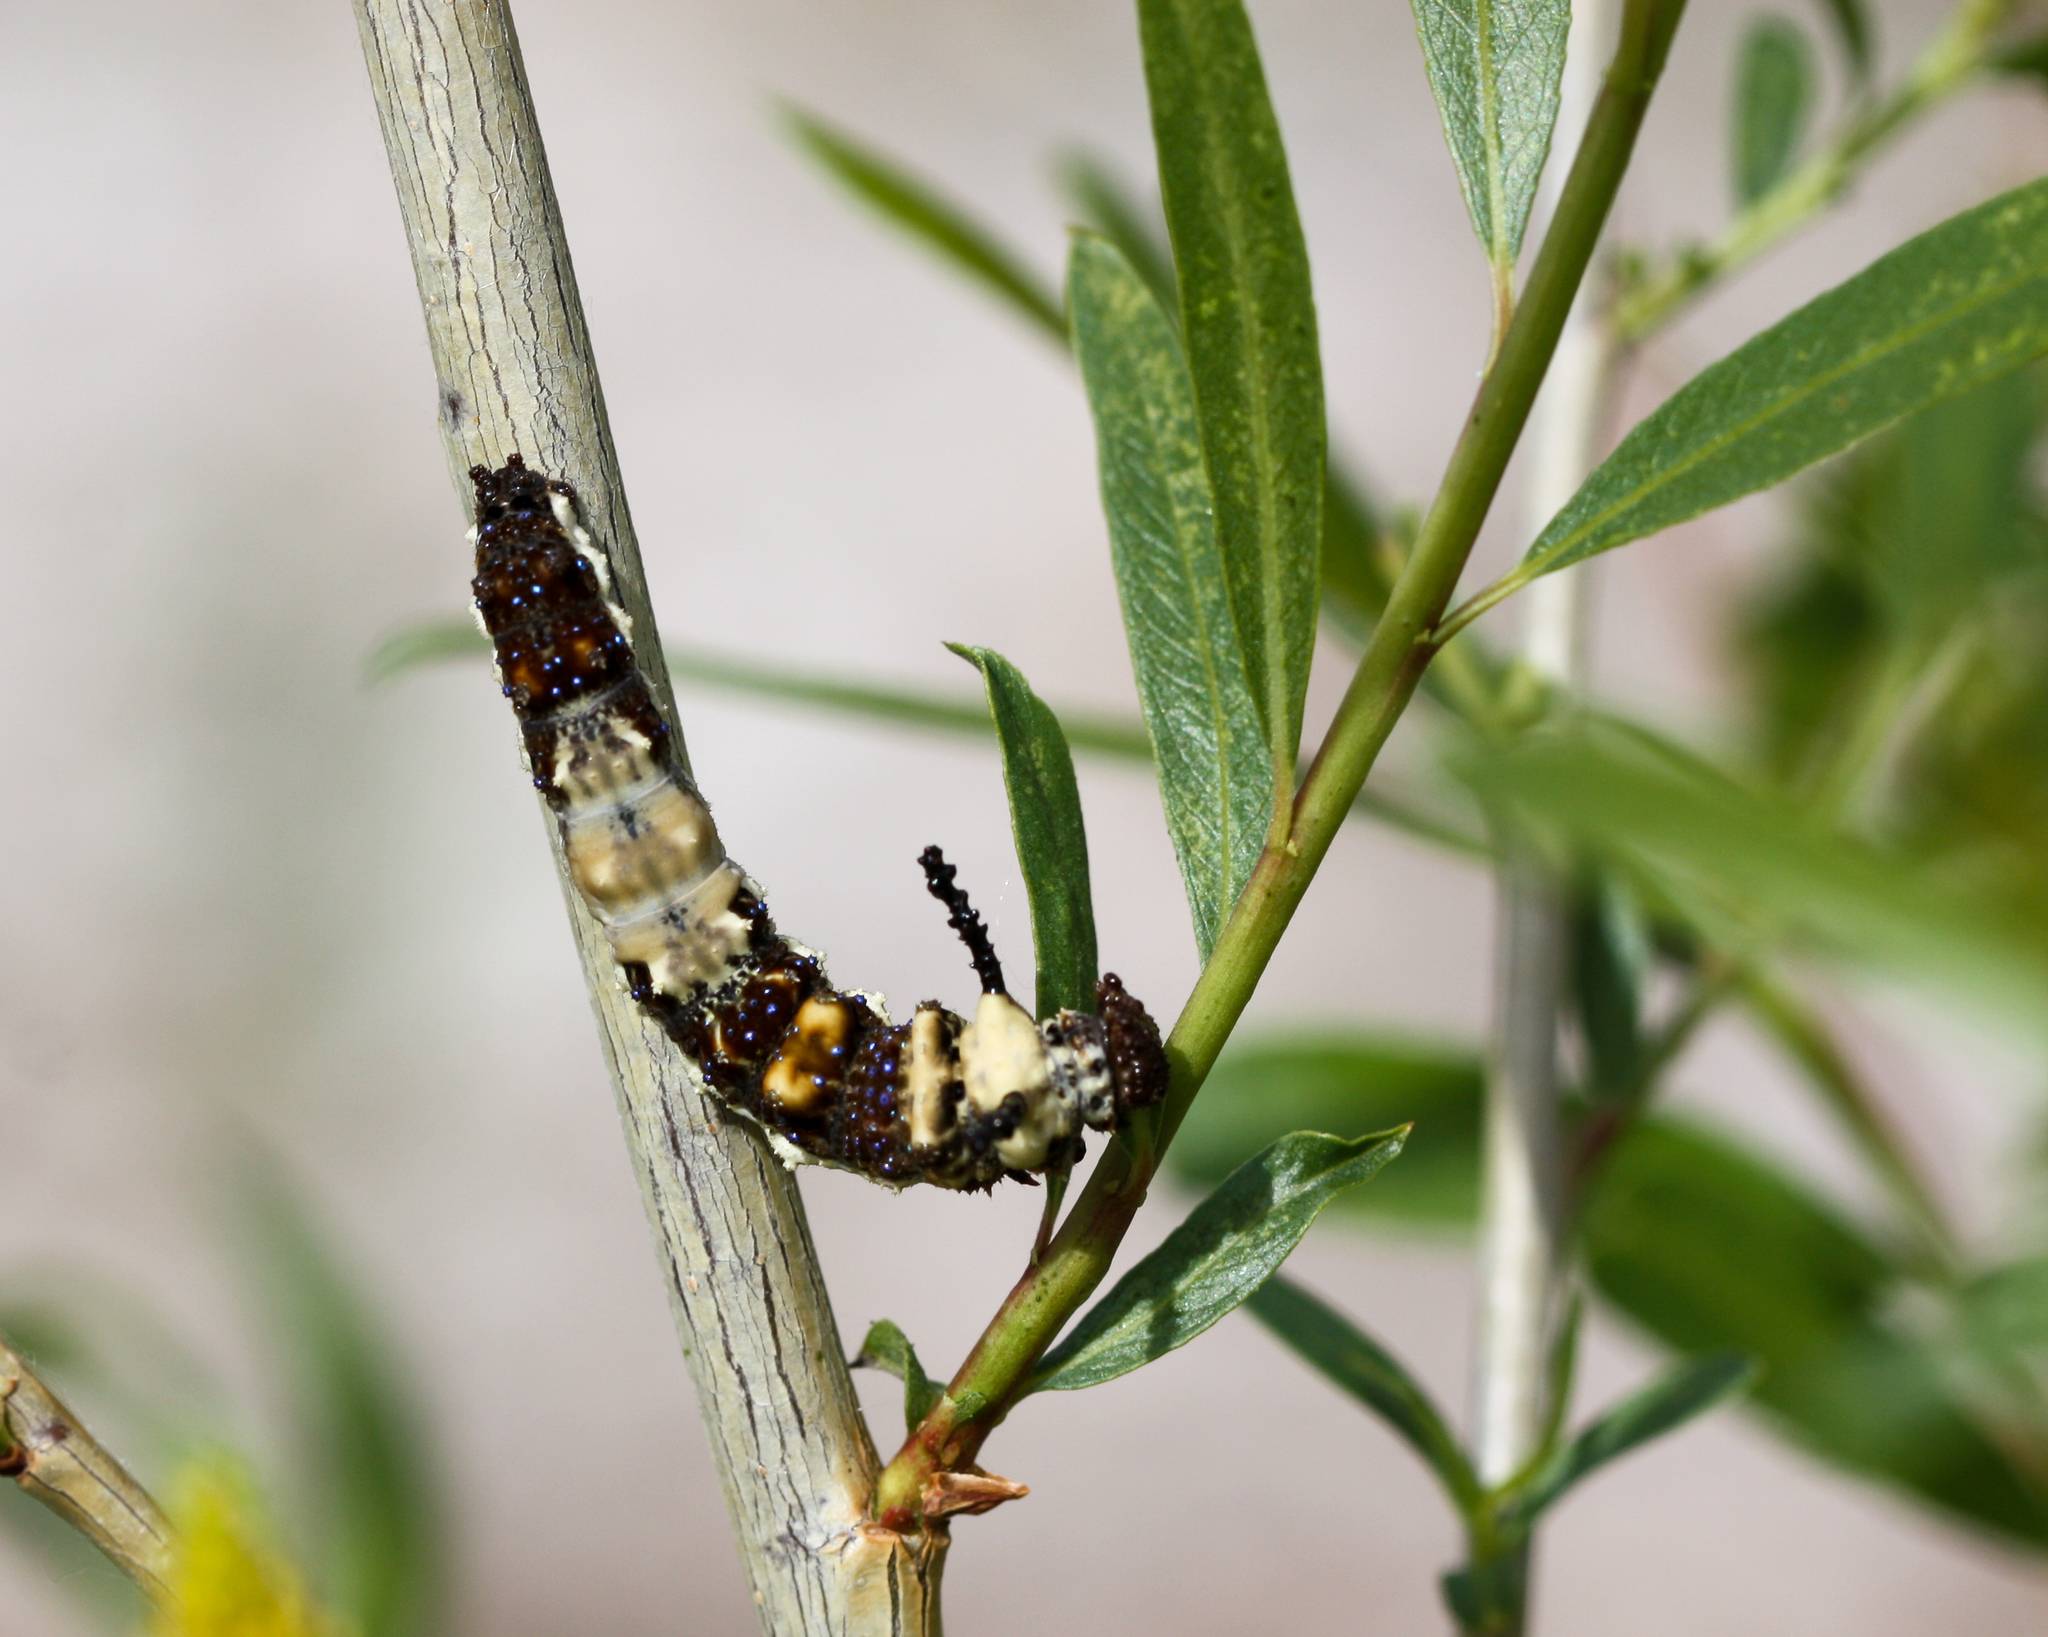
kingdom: Animalia
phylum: Arthropoda
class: Insecta
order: Lepidoptera
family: Nymphalidae
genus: Limenitis
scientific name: Limenitis archippus
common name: Viceroy
